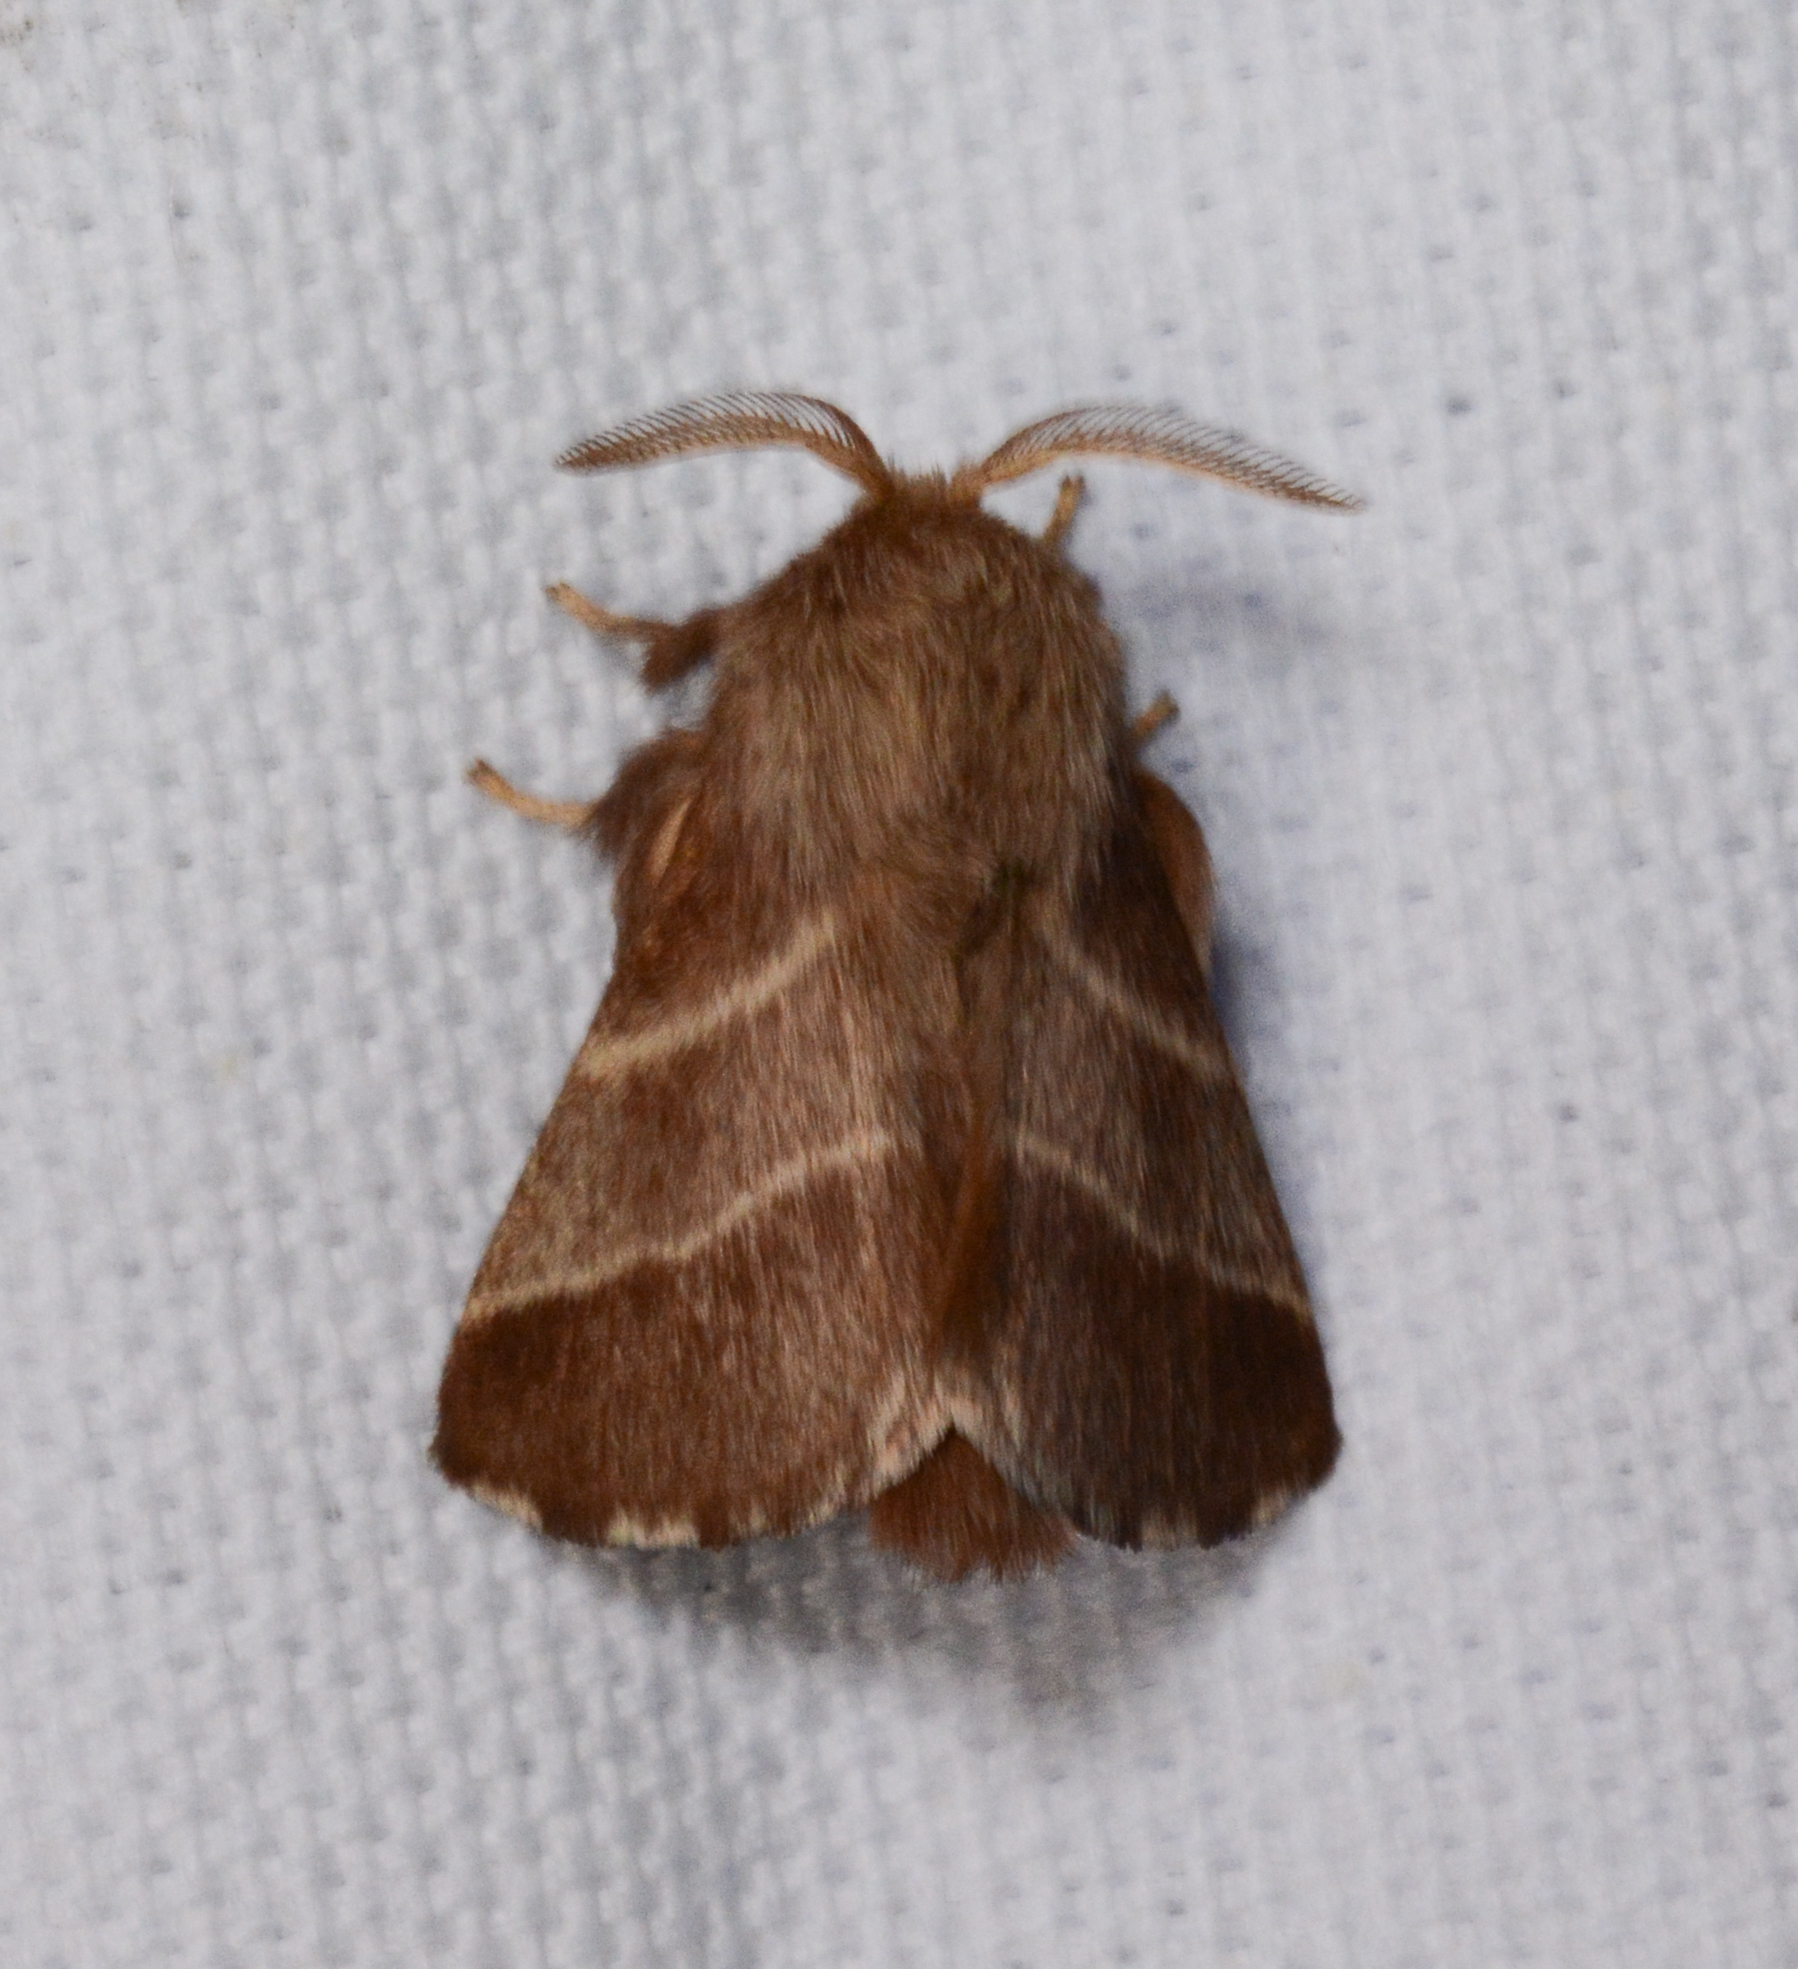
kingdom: Animalia
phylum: Arthropoda
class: Insecta
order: Lepidoptera
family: Lasiocampidae
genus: Malacosoma
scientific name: Malacosoma americana
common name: Eastern tent caterpillar moth
